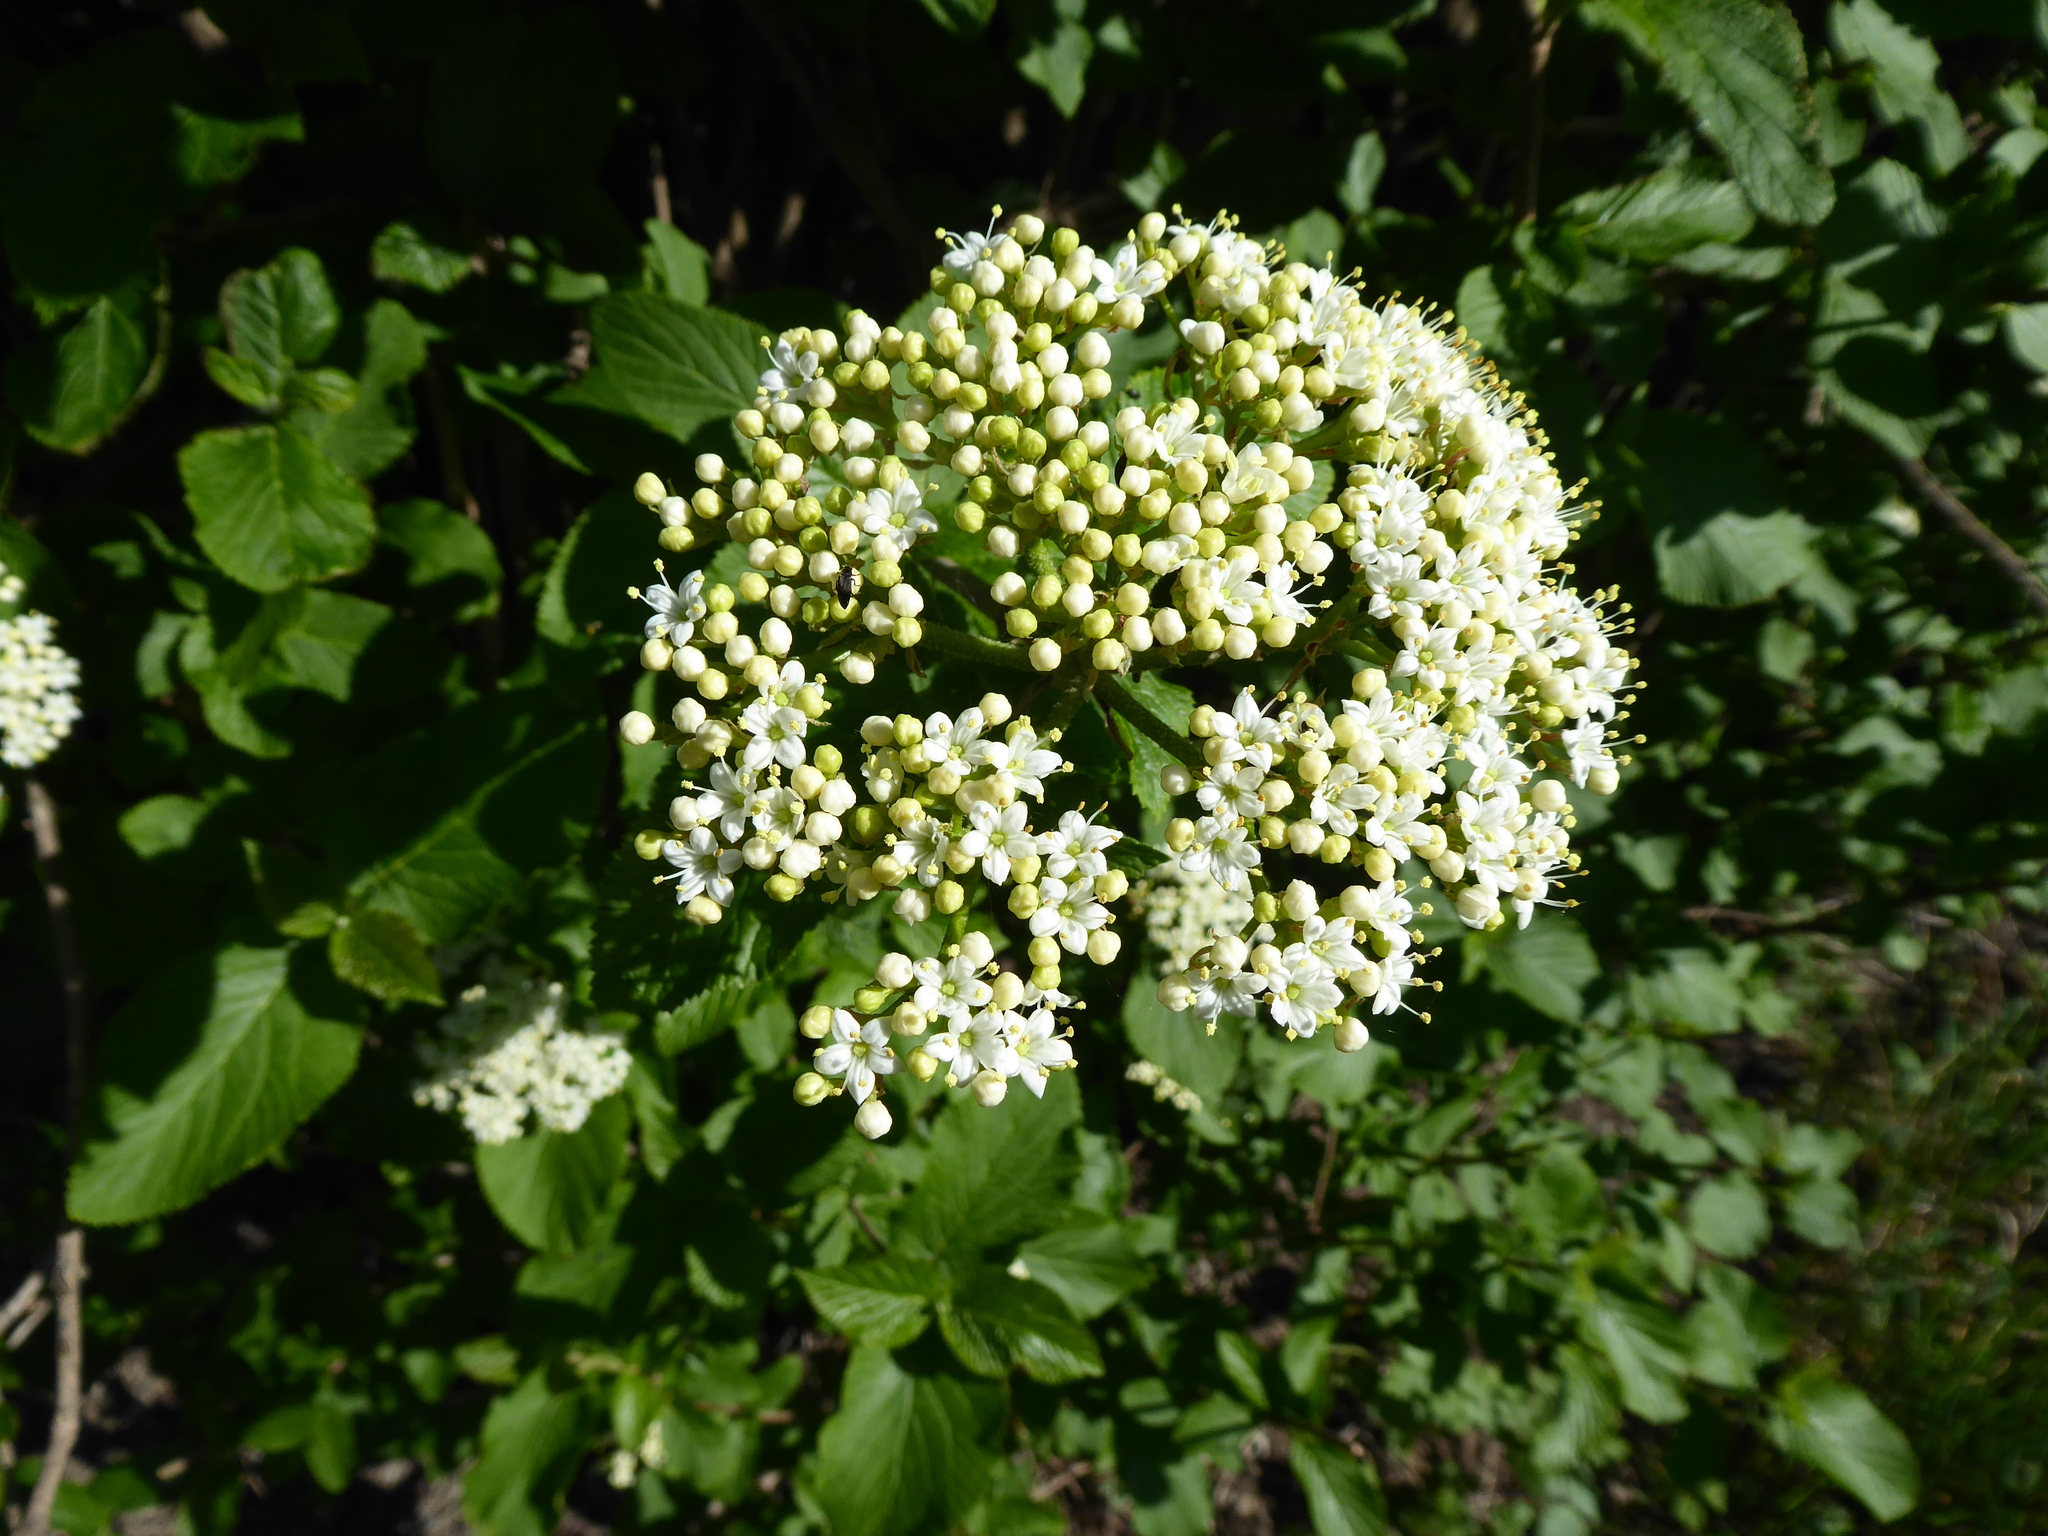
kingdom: Plantae
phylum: Tracheophyta
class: Magnoliopsida
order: Dipsacales
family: Viburnaceae
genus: Viburnum
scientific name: Viburnum lantana
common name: Wayfaring tree
